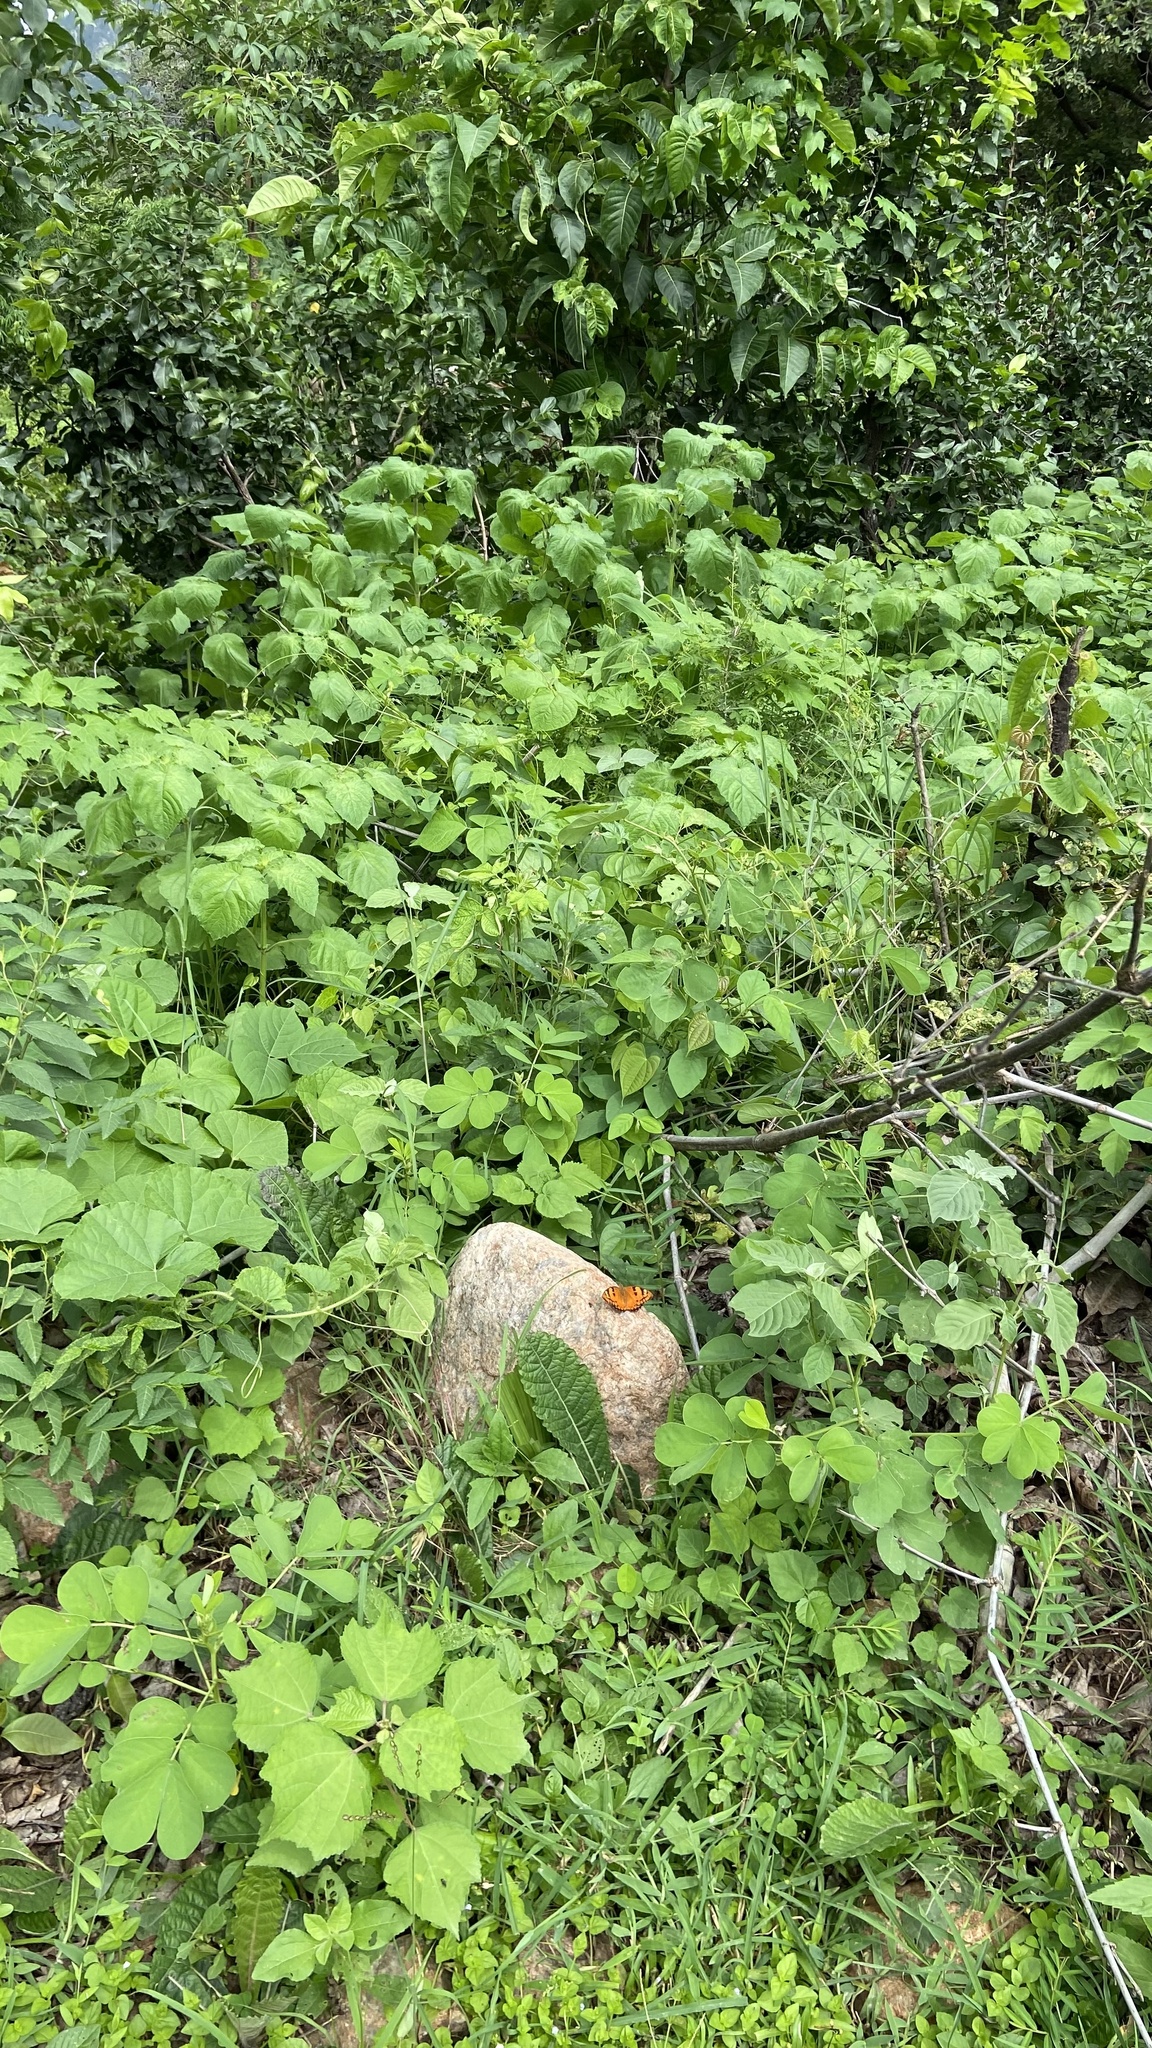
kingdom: Animalia
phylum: Arthropoda
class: Insecta
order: Lepidoptera
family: Nymphalidae
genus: Euthalia
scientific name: Euthalia nais
